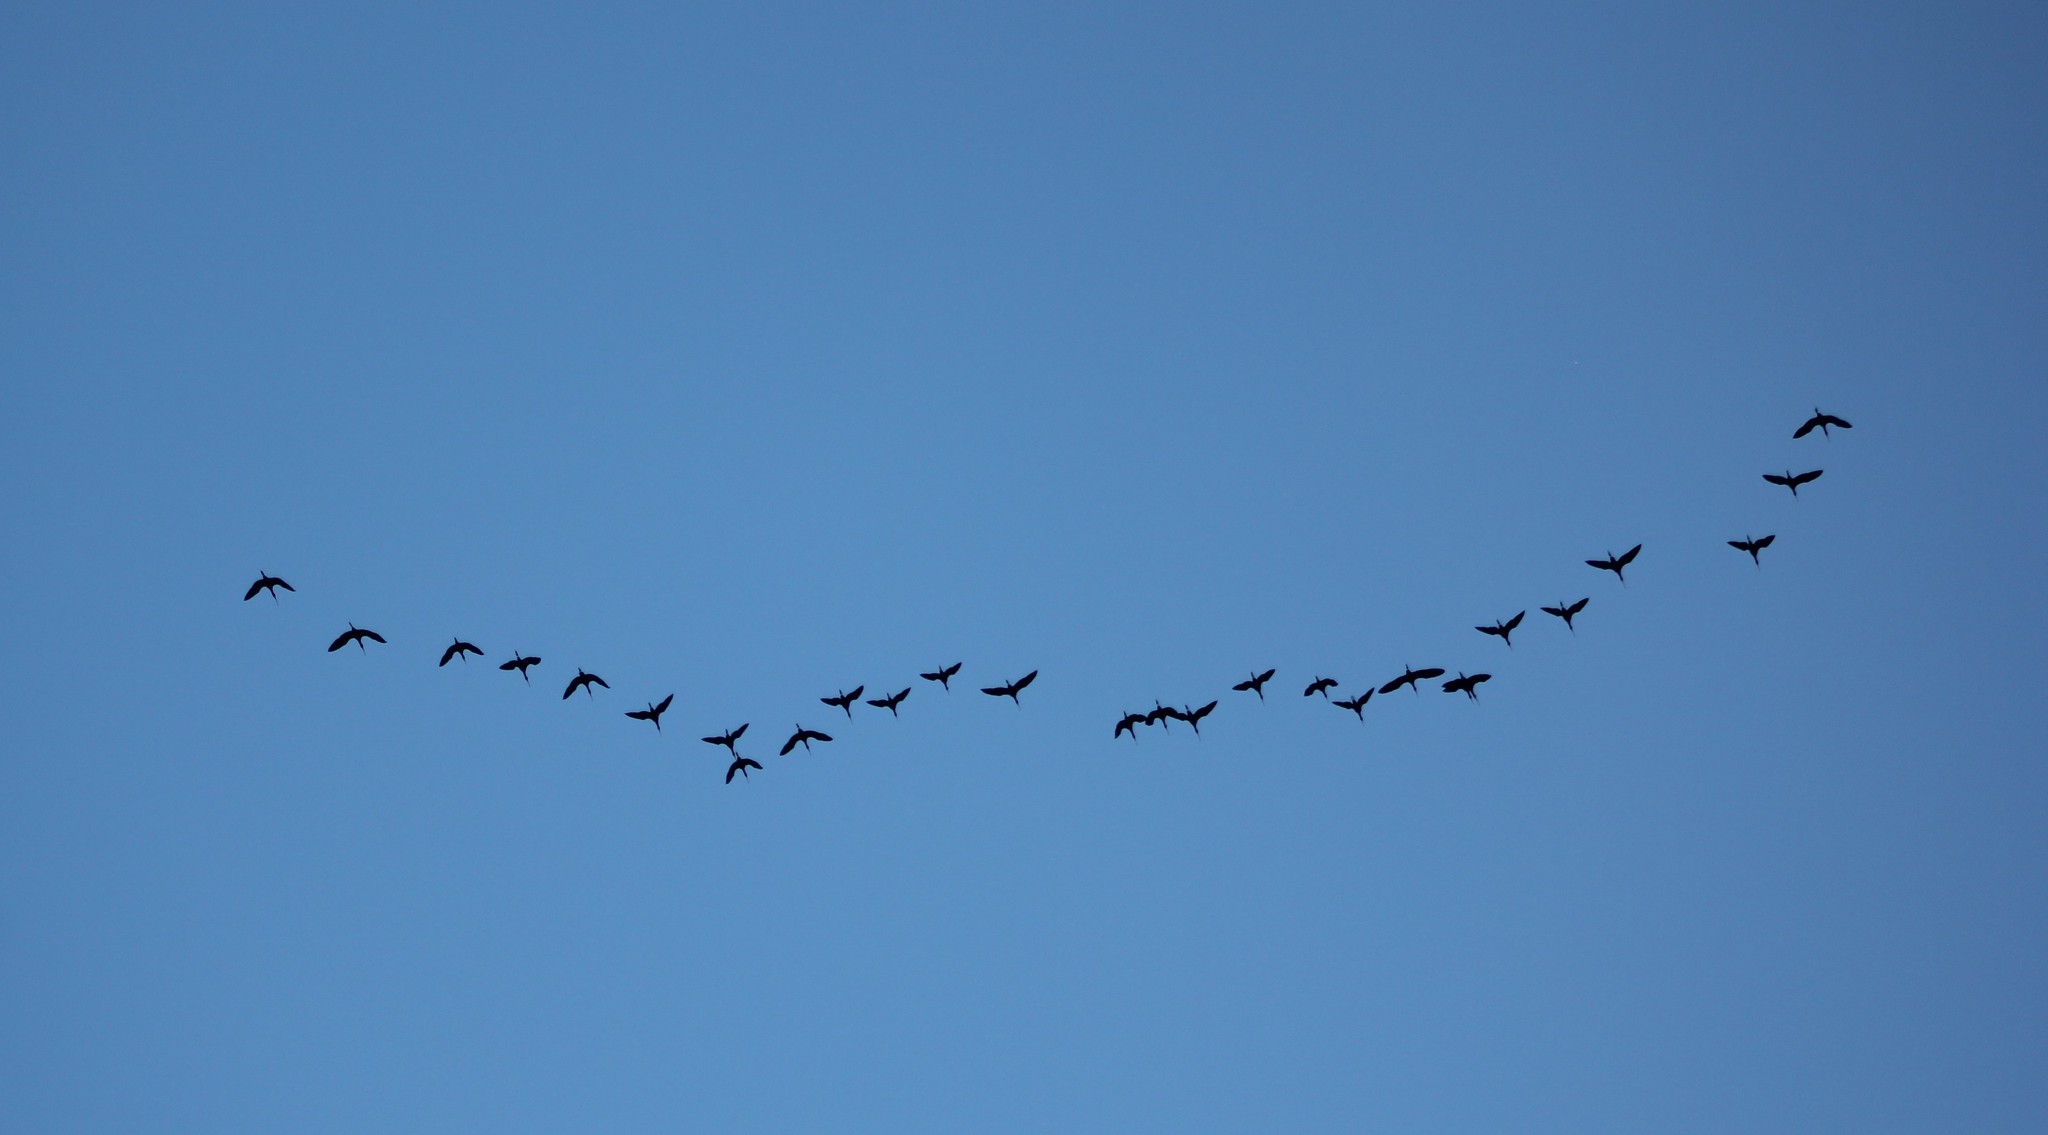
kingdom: Animalia
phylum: Chordata
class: Aves
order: Pelecaniformes
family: Threskiornithidae
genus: Plegadis
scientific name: Plegadis chihi
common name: White-faced ibis
